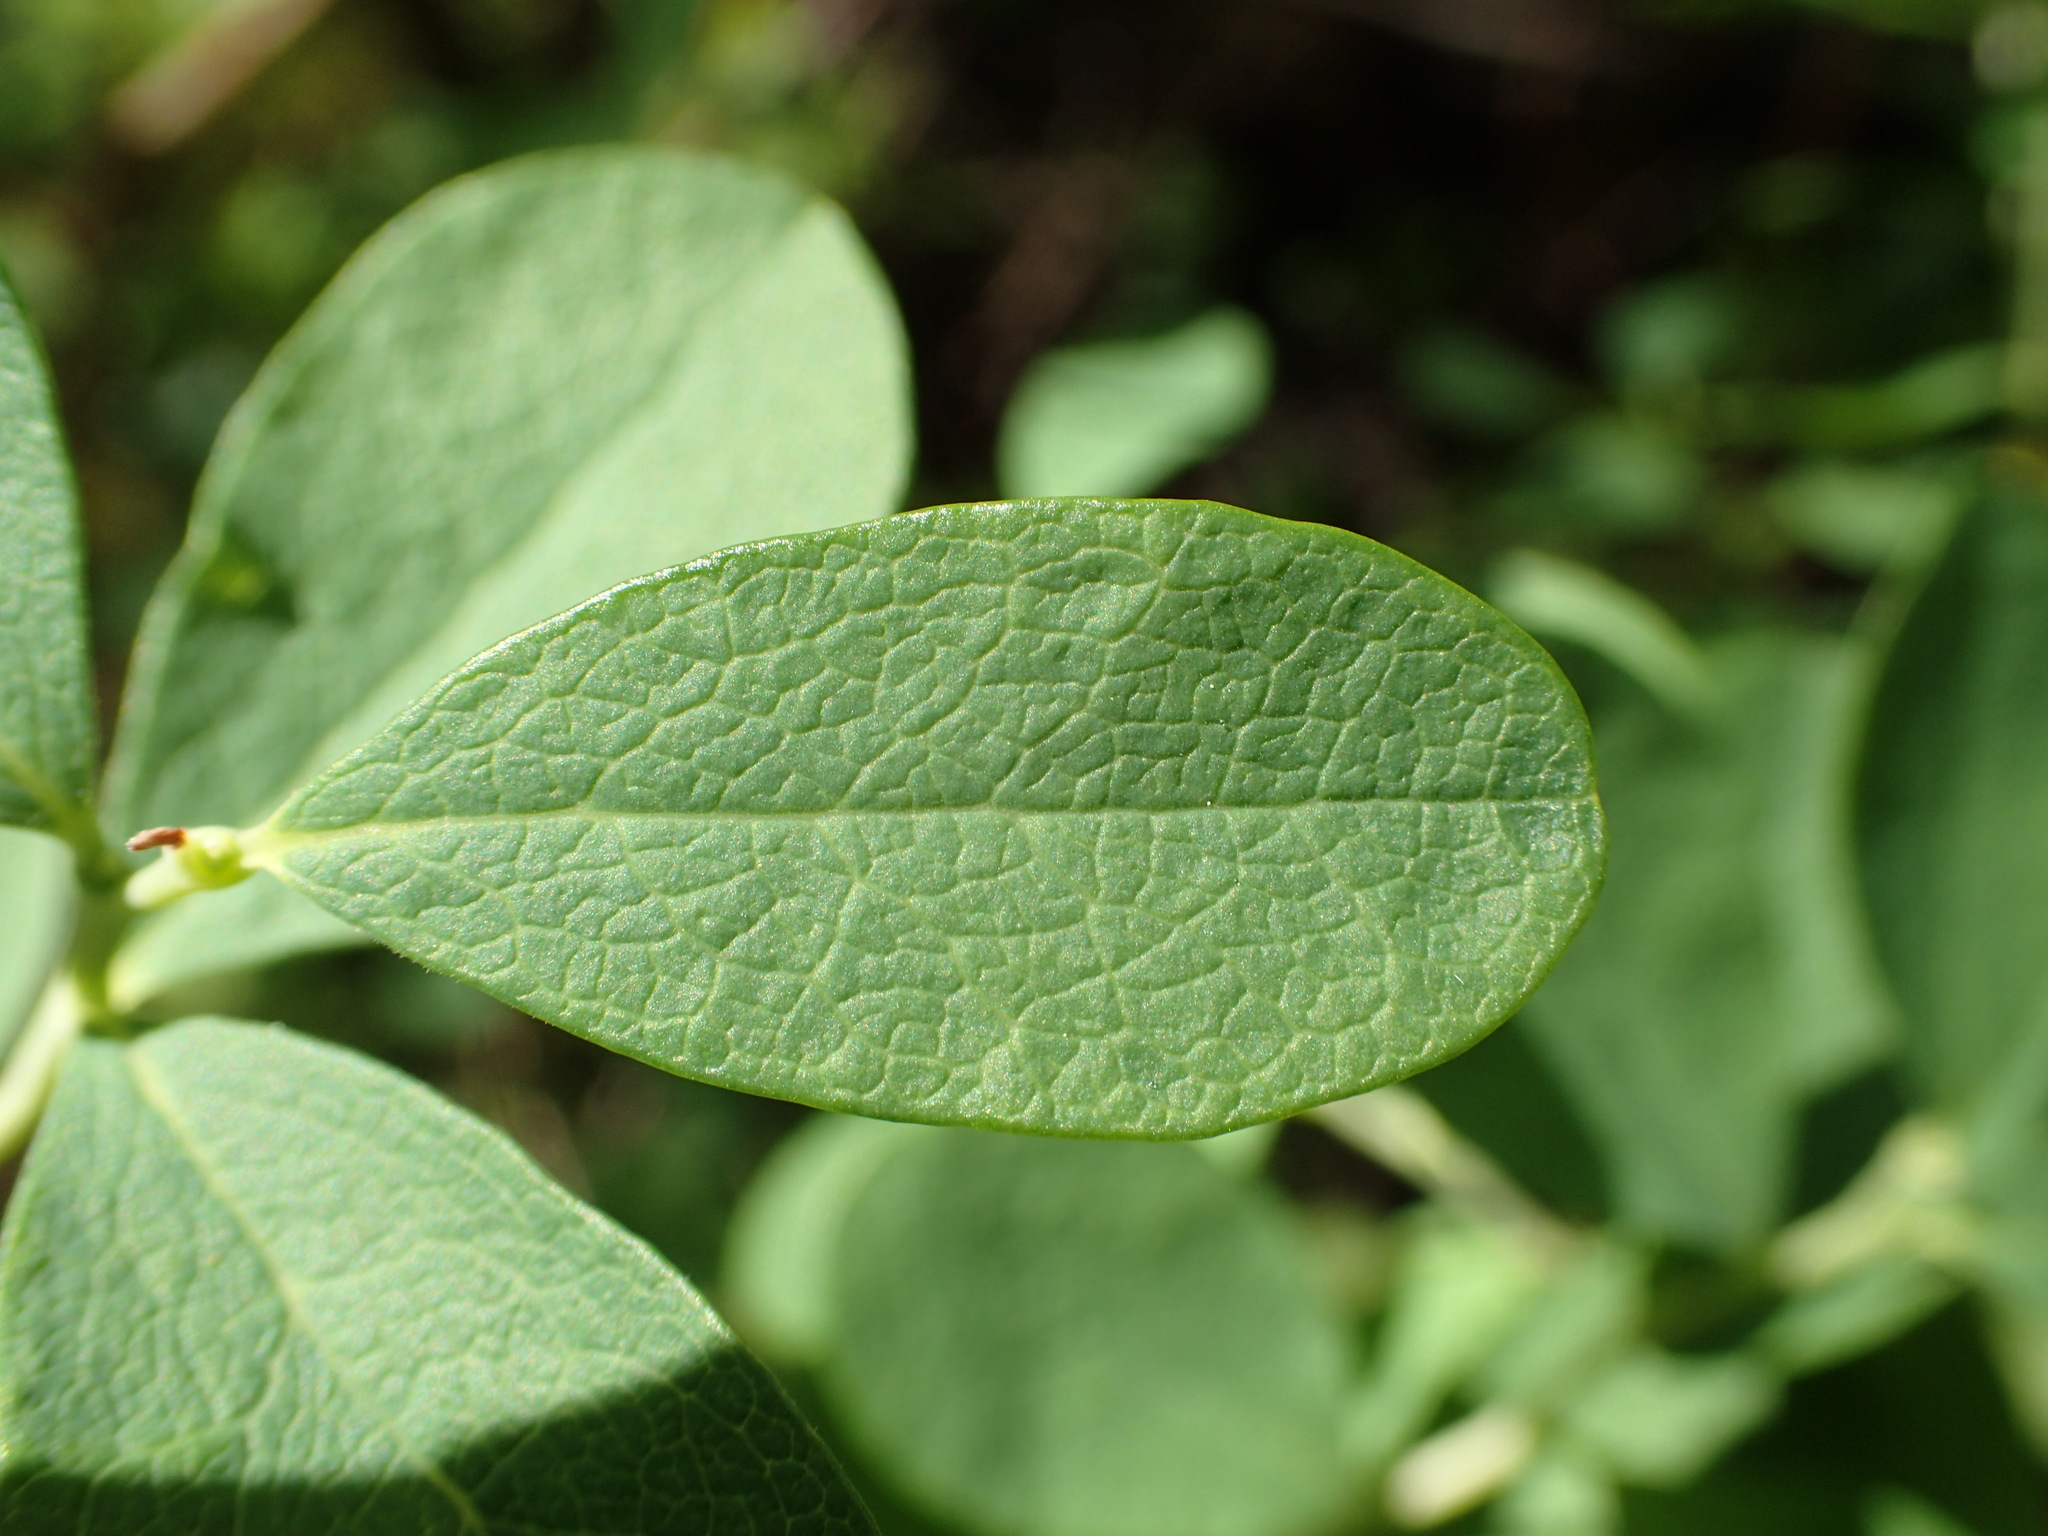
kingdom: Plantae
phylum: Tracheophyta
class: Magnoliopsida
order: Ericales
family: Ericaceae
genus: Vaccinium
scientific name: Vaccinium uliginosum
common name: Bog bilberry
